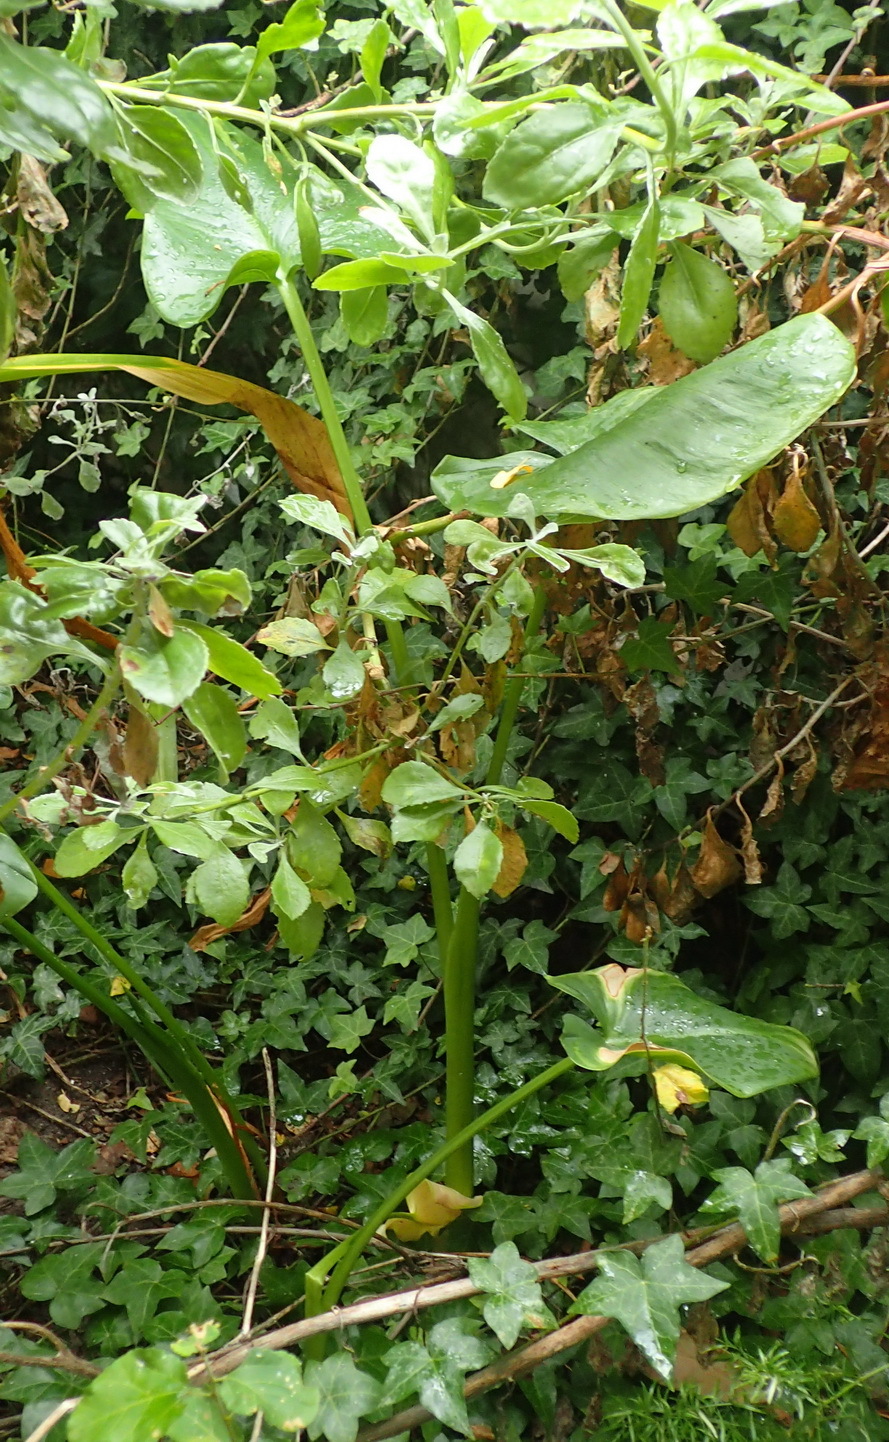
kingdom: Plantae
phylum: Tracheophyta
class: Liliopsida
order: Alismatales
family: Araceae
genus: Zantedeschia
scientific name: Zantedeschia aethiopica
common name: Altar-lily
